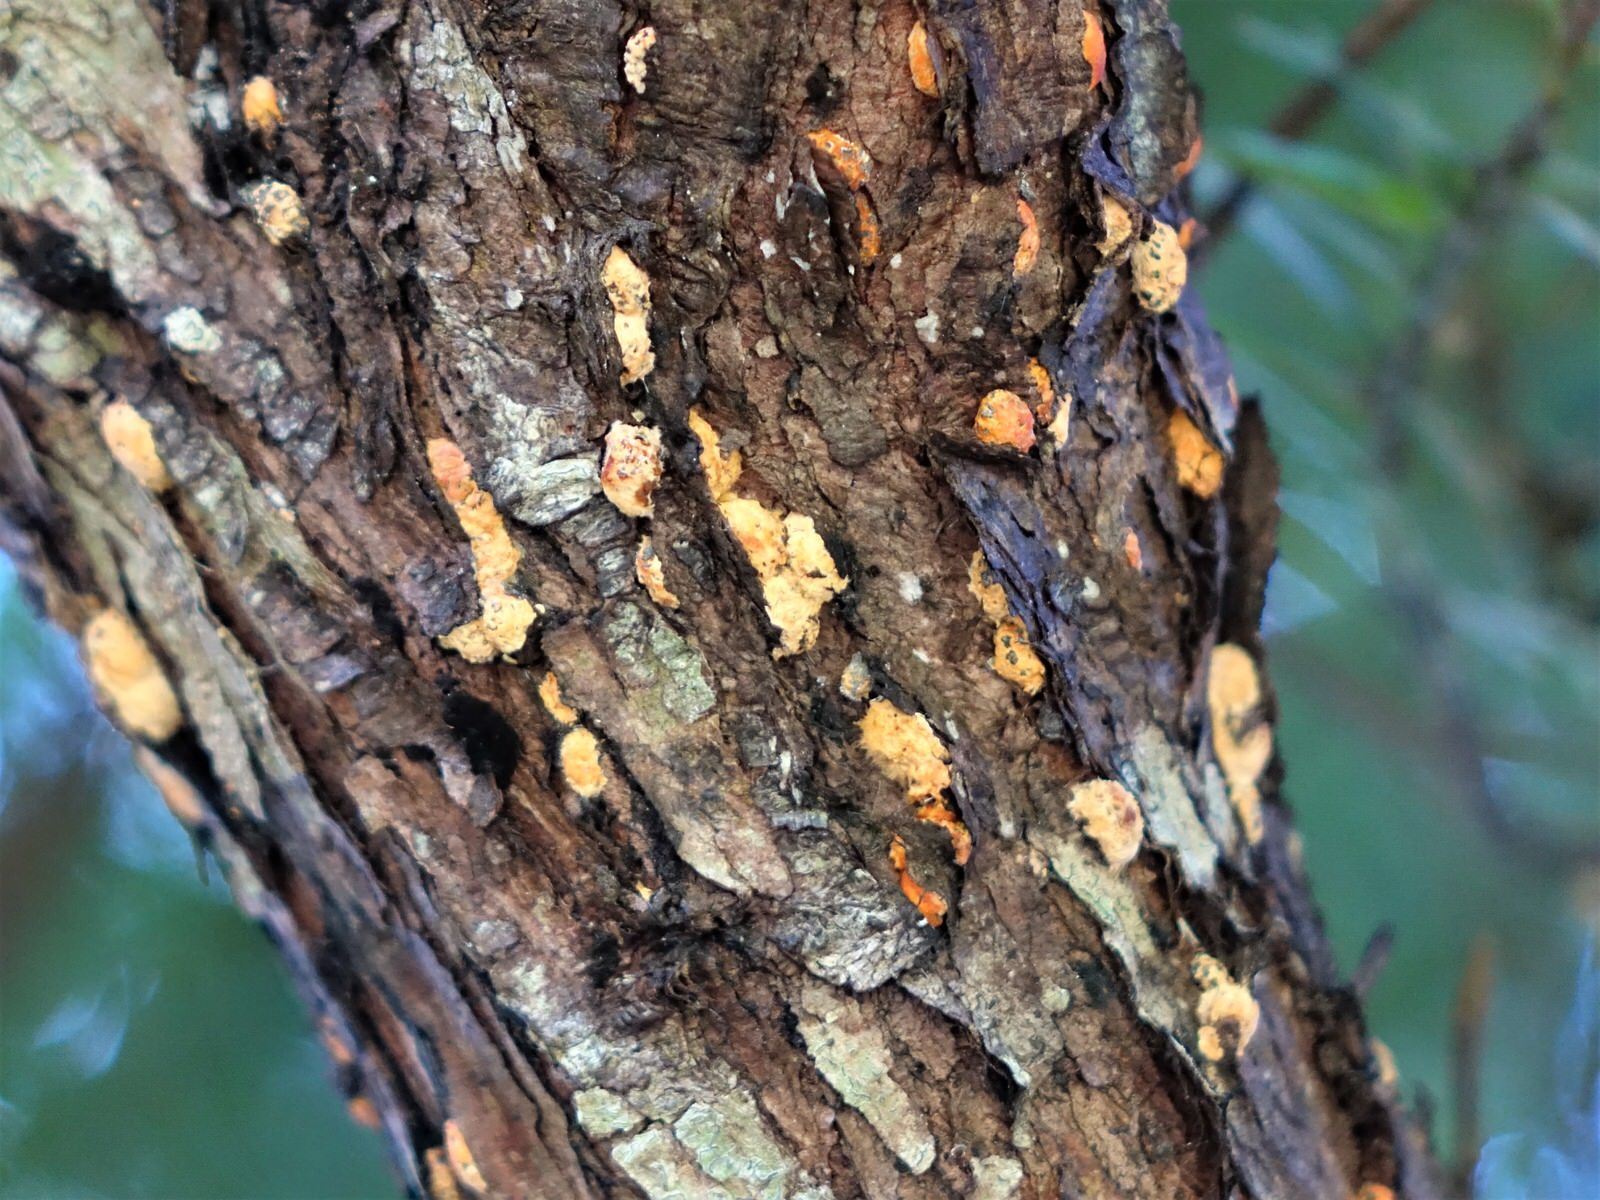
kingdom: Plantae
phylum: Tracheophyta
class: Pinopsida
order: Pinales
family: Podocarpaceae
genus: Podocarpus
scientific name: Podocarpus totara
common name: Totara
